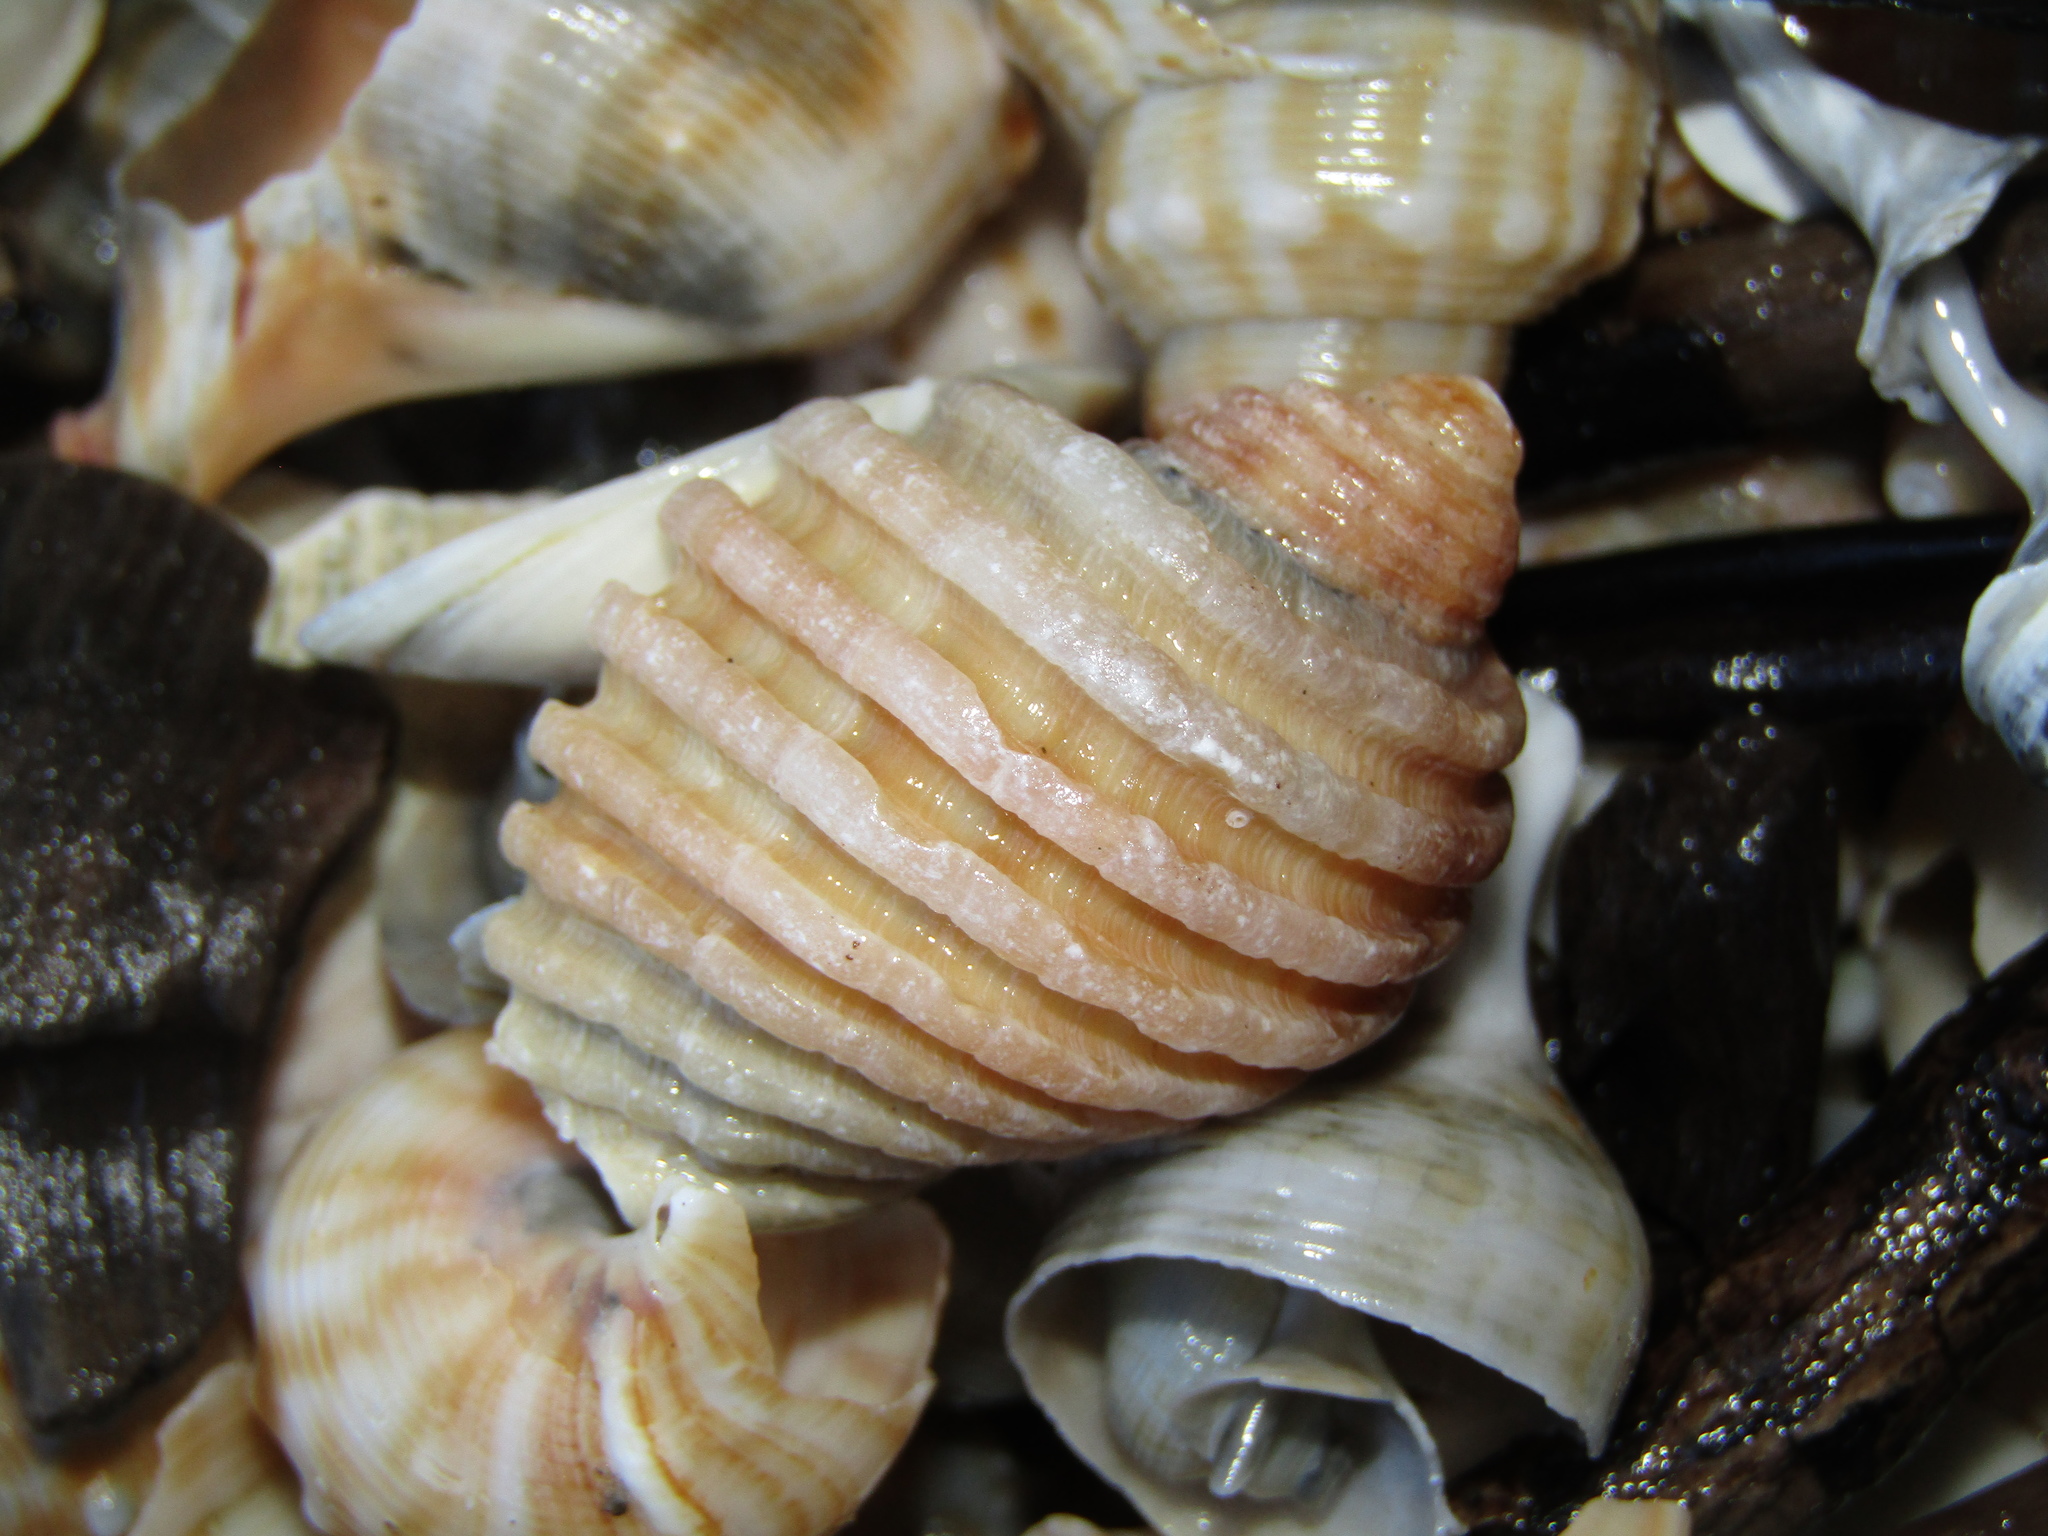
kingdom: Animalia
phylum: Mollusca
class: Gastropoda
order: Neogastropoda
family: Muricidae
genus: Dicathais
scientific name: Dicathais orbita
